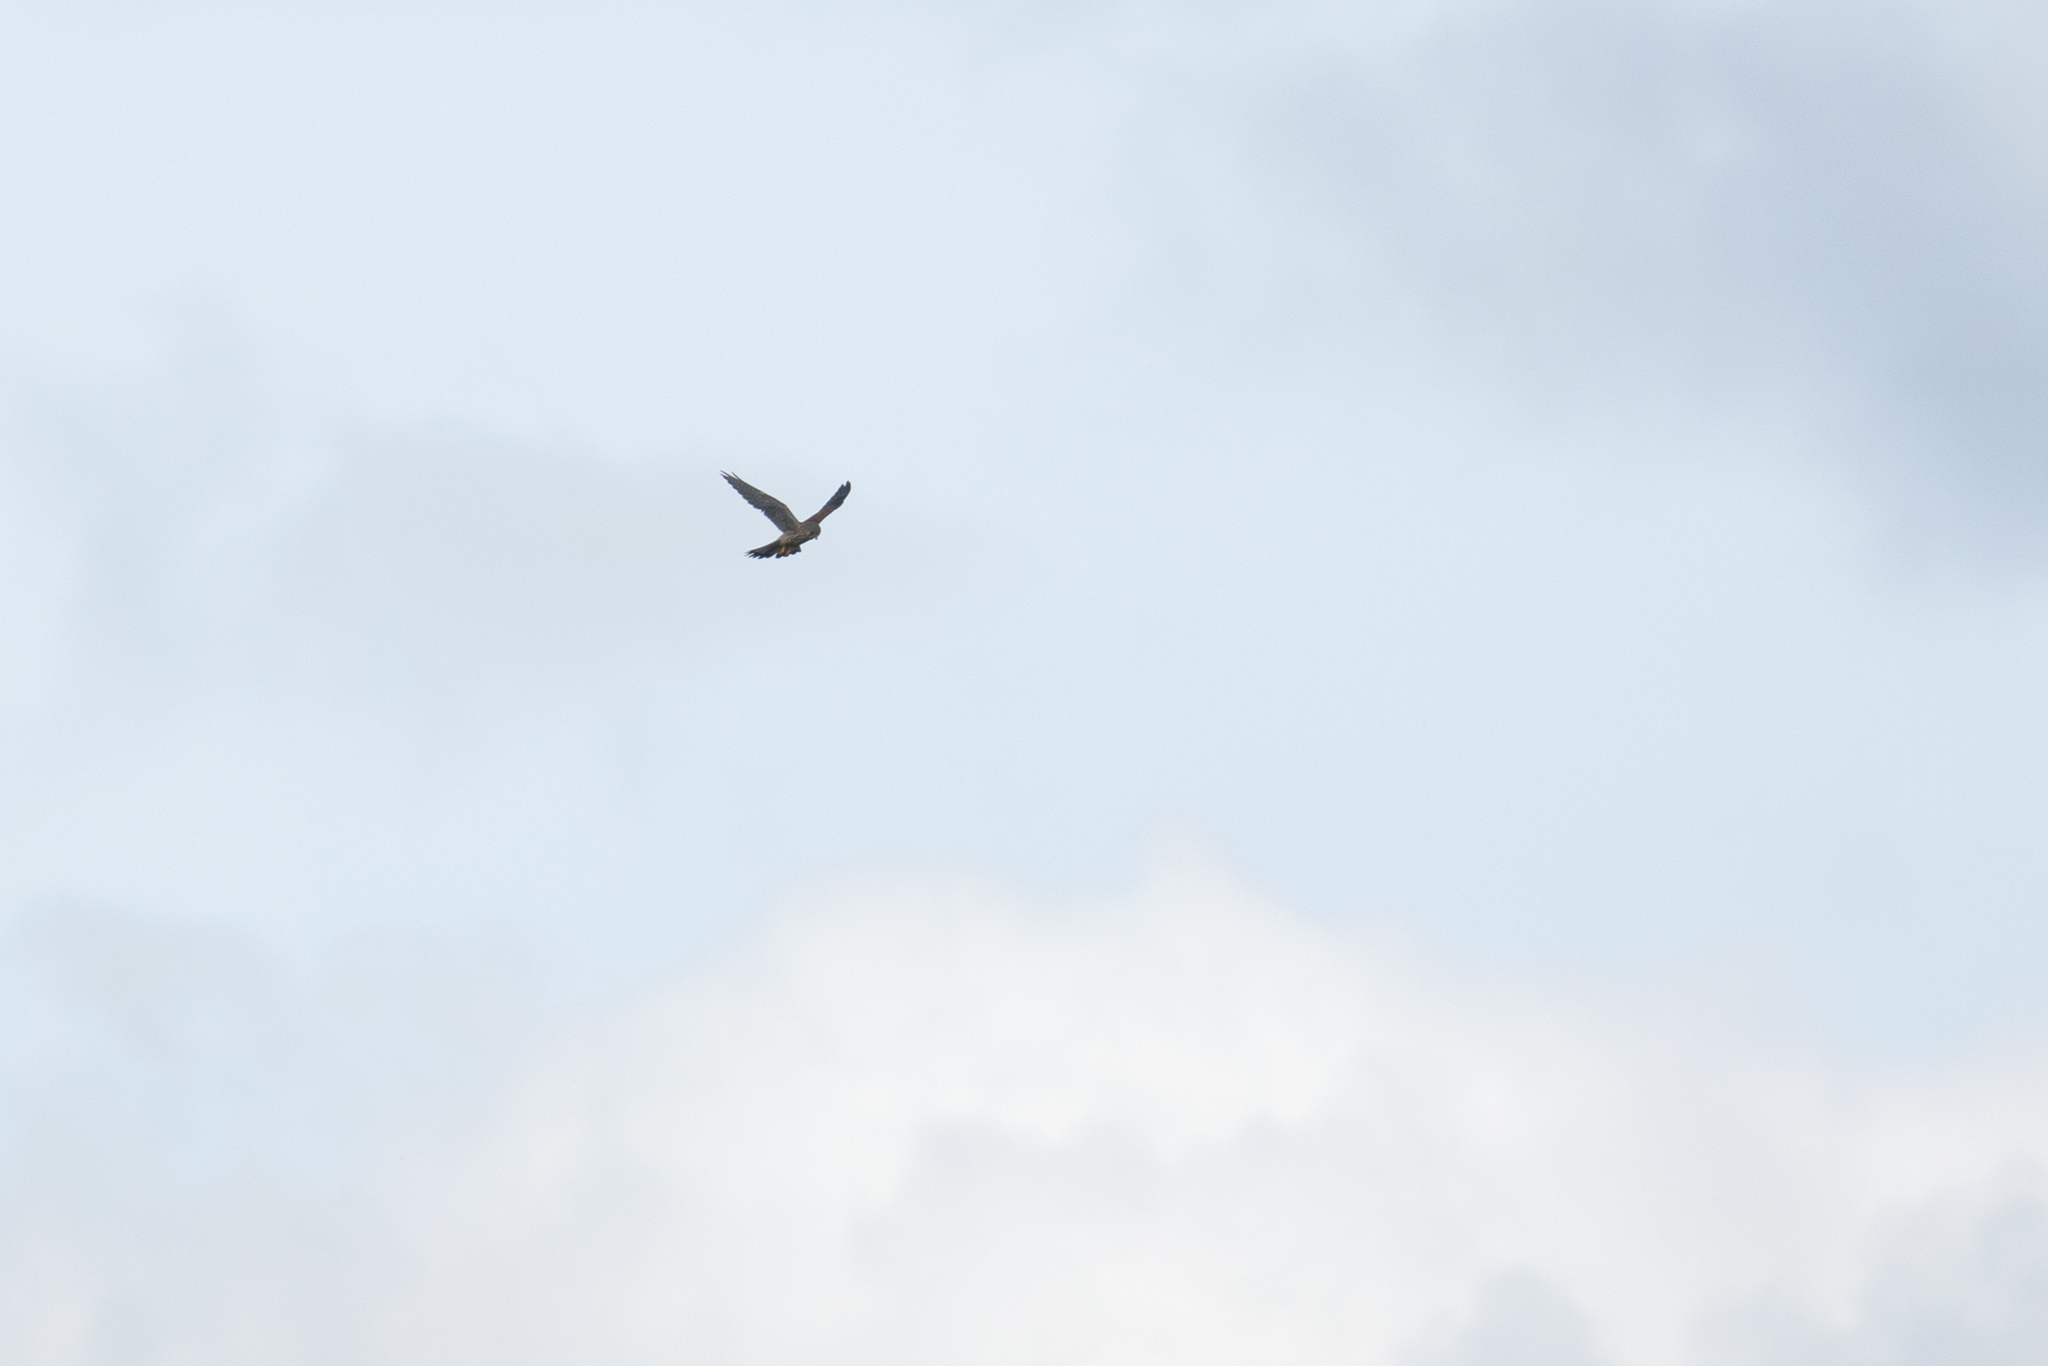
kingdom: Animalia
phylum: Chordata
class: Aves
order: Falconiformes
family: Falconidae
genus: Falco
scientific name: Falco tinnunculus
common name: Common kestrel
